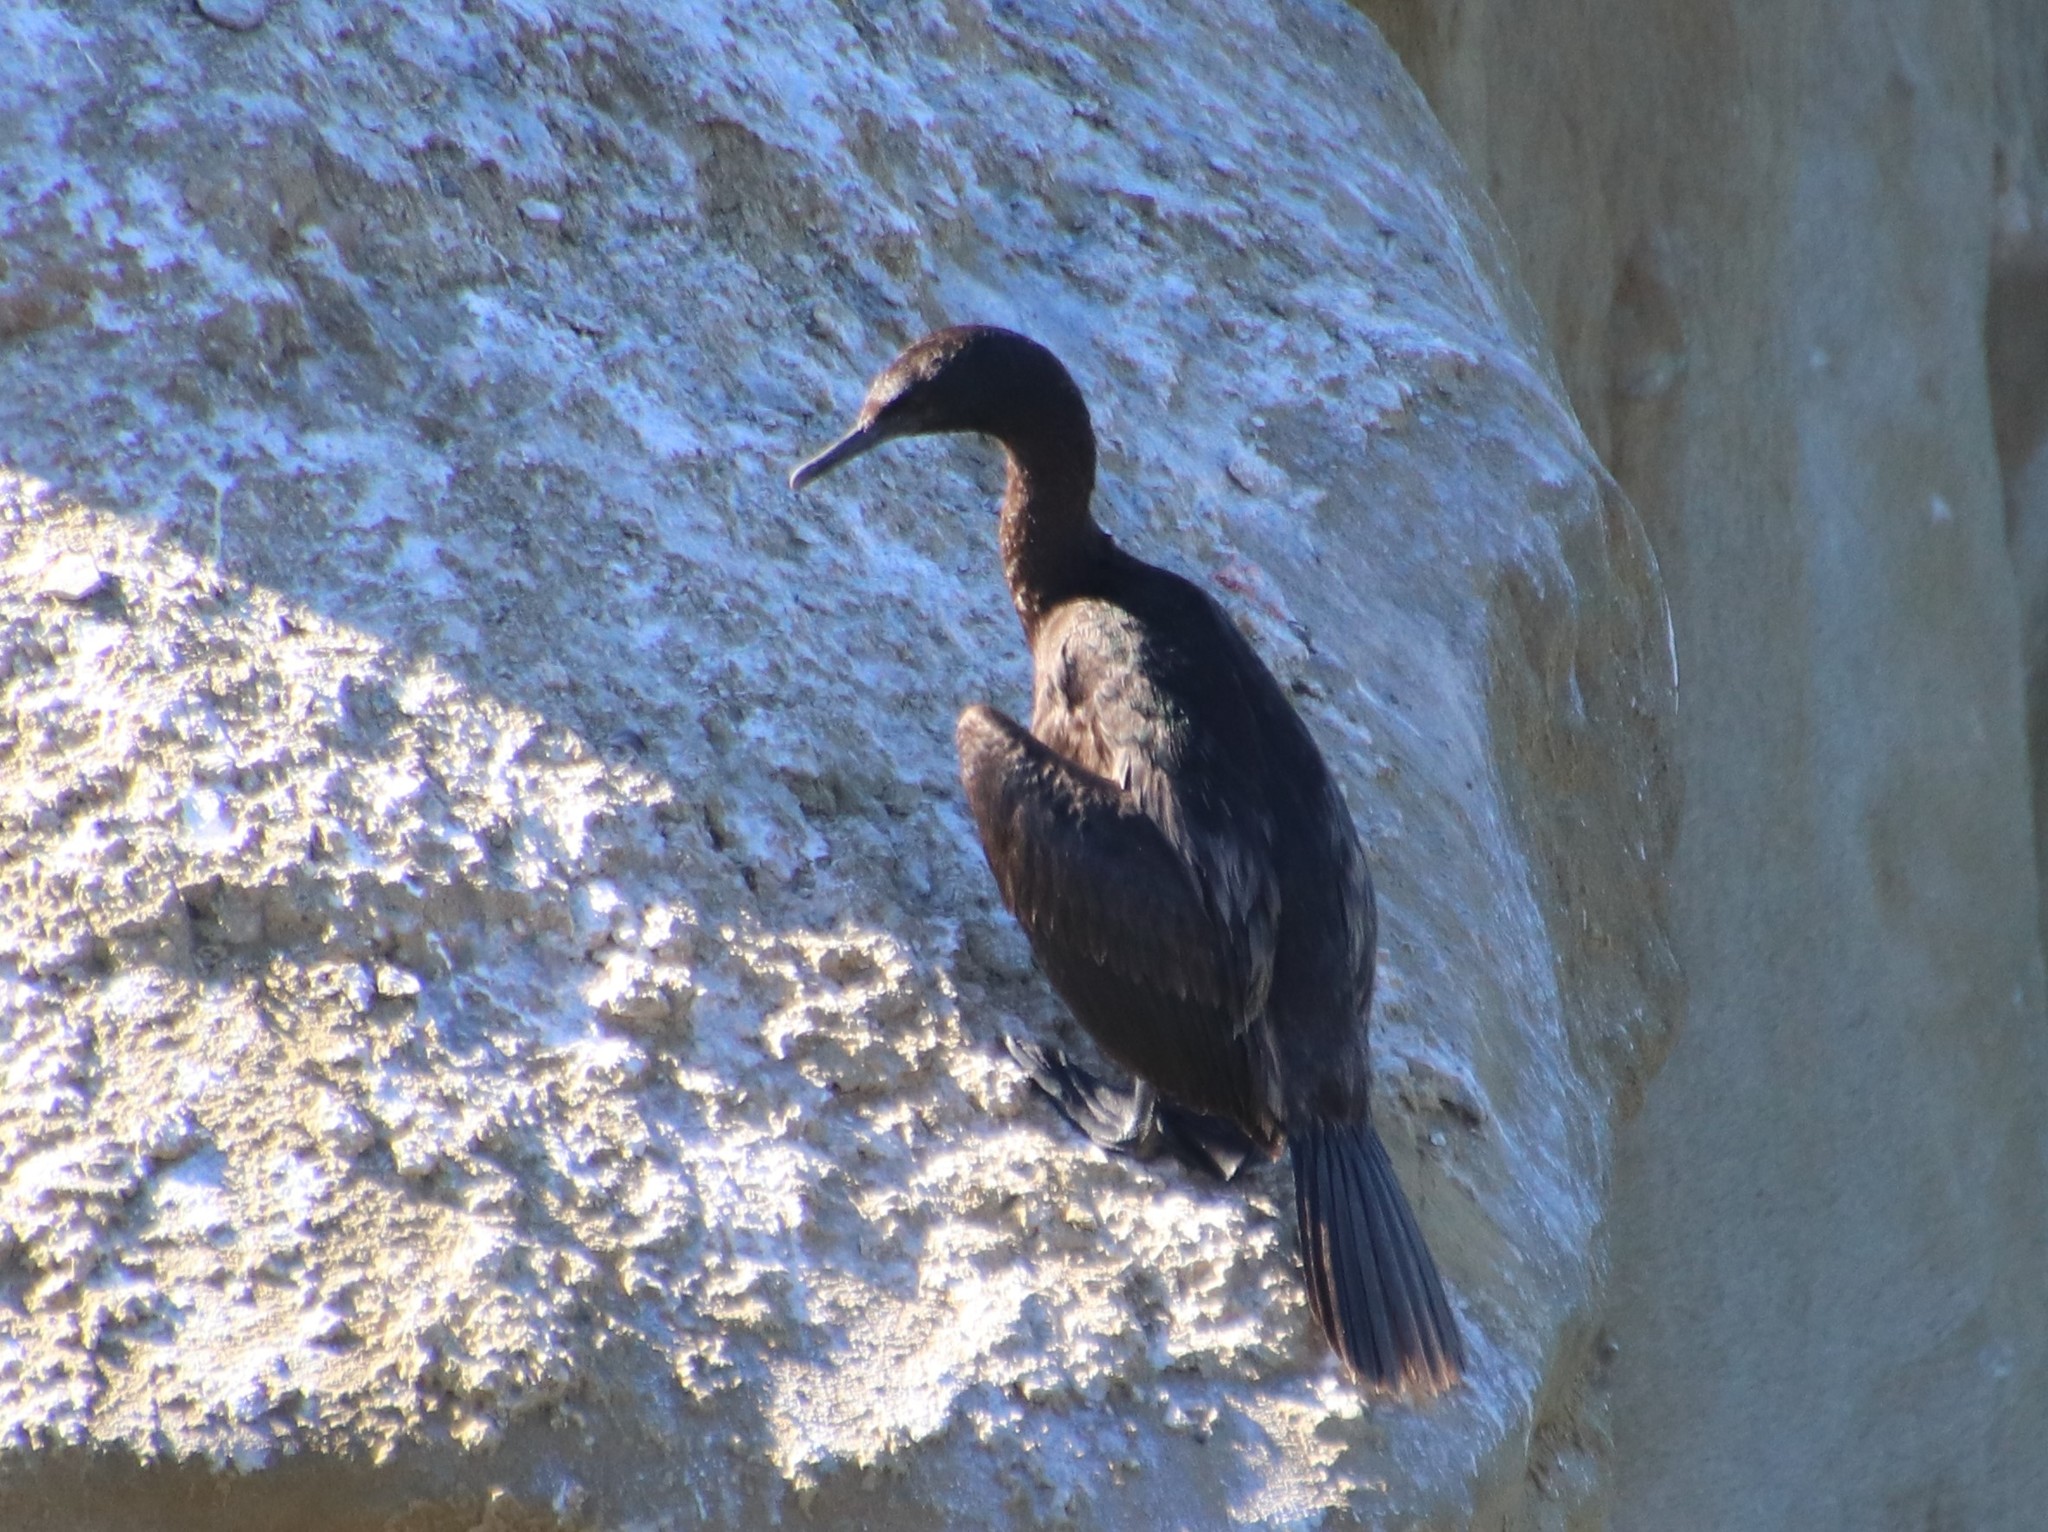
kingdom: Animalia
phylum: Chordata
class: Aves
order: Suliformes
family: Phalacrocoracidae
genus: Phalacrocorax
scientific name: Phalacrocorax pelagicus
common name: Pelagic cormorant
